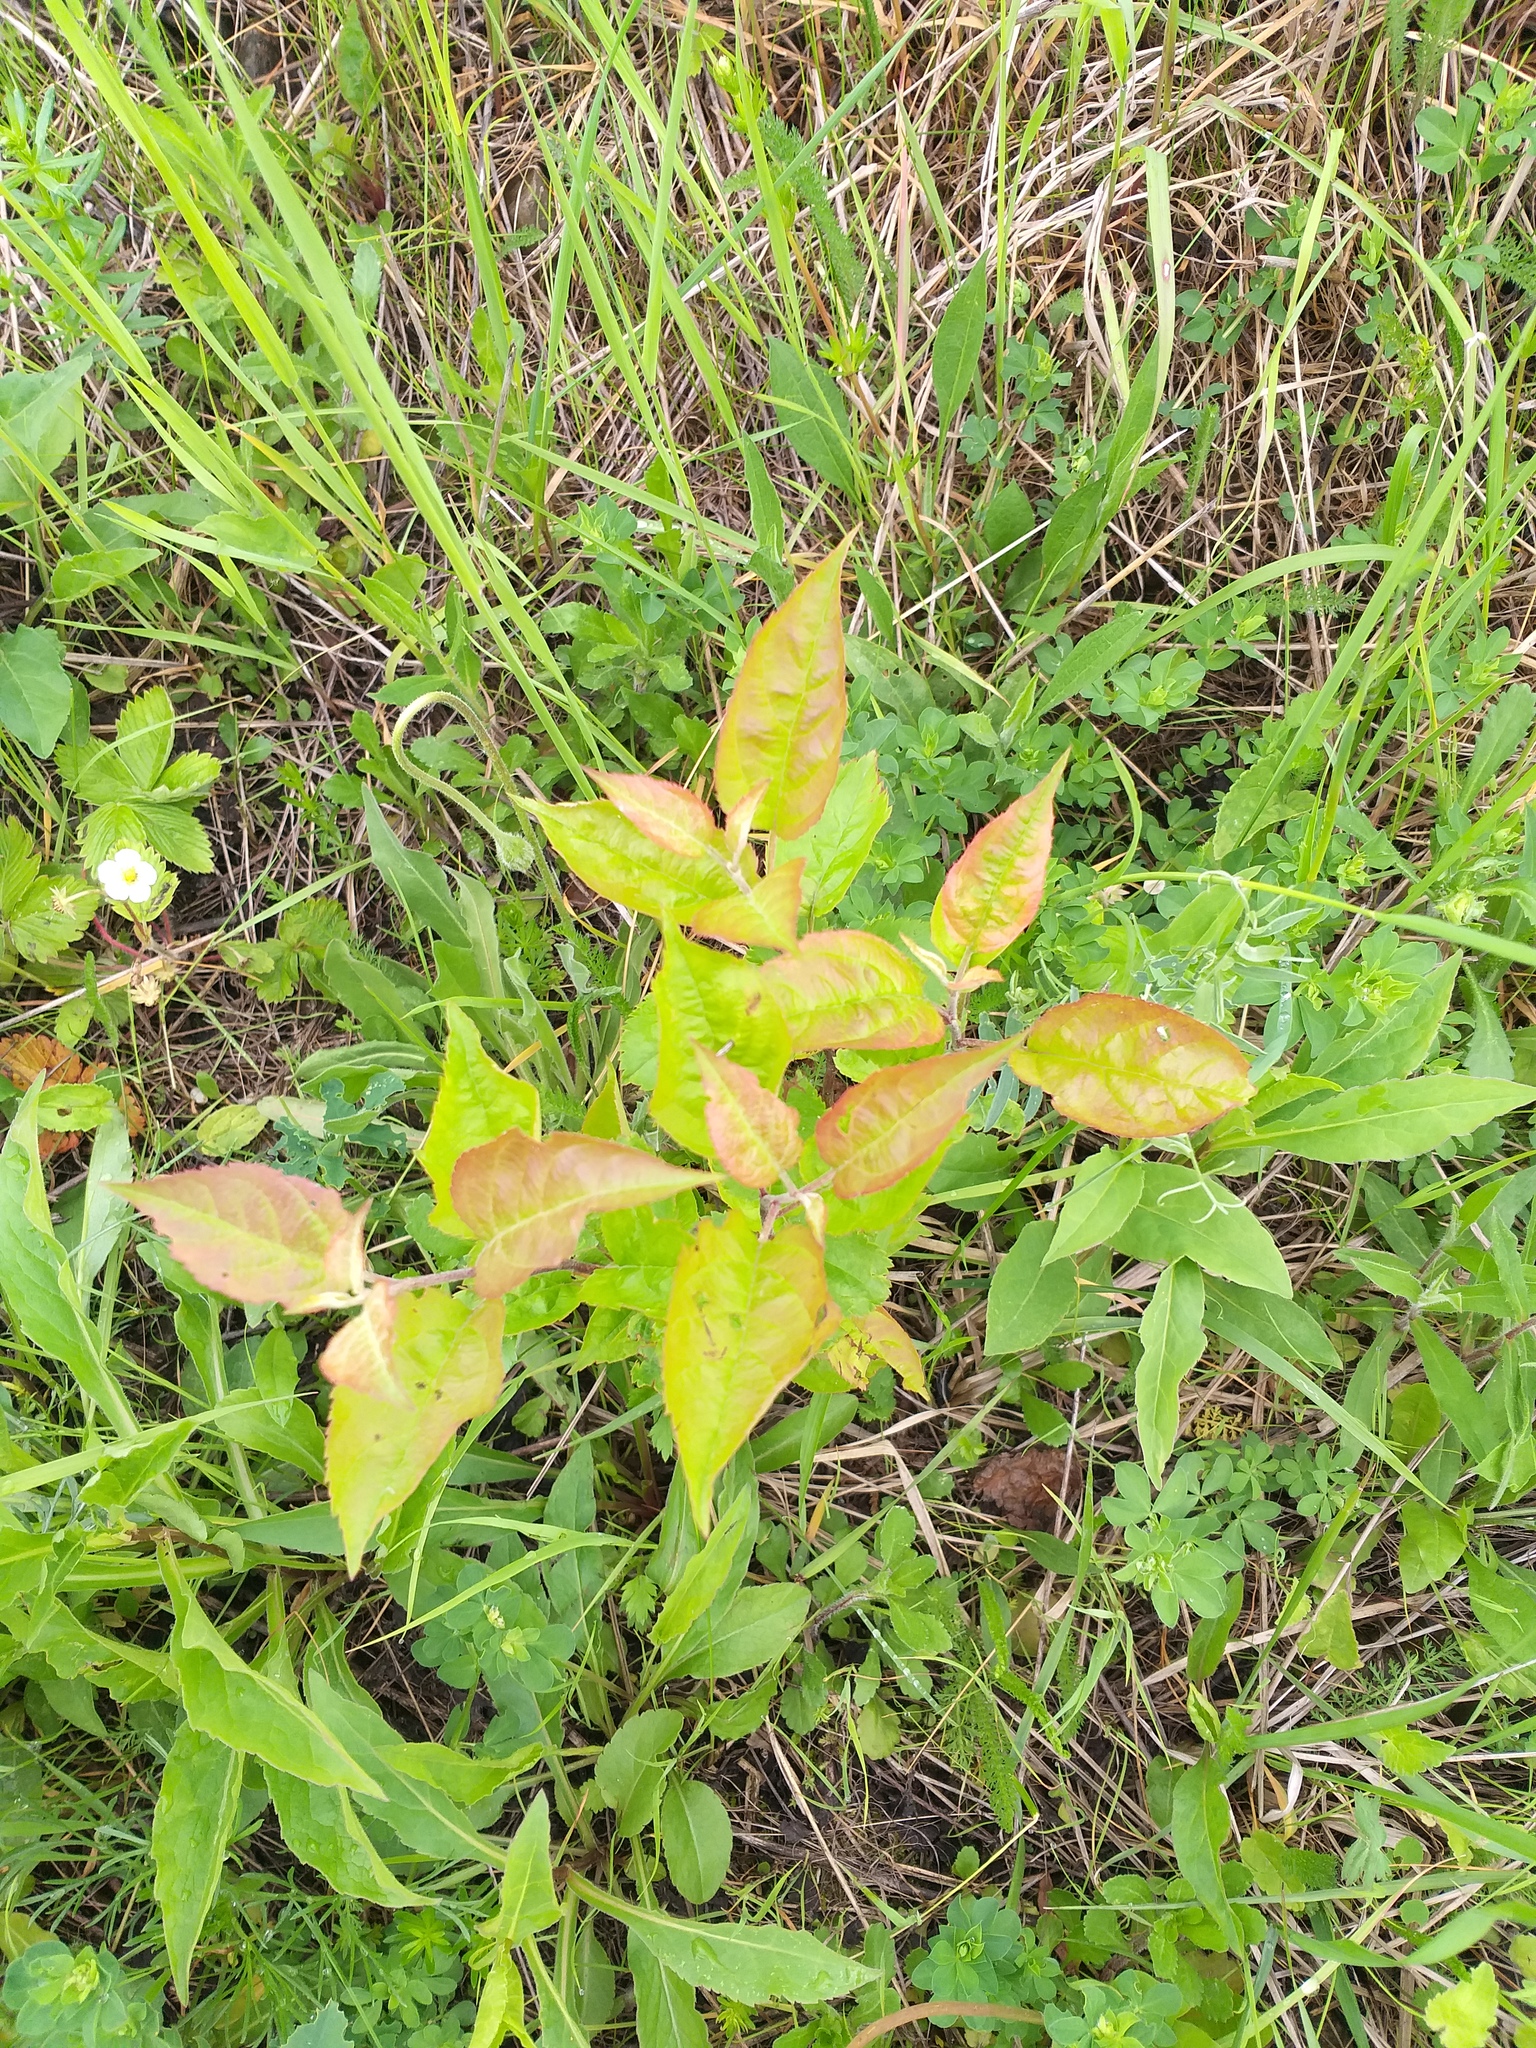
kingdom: Plantae
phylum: Tracheophyta
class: Magnoliopsida
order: Rosales
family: Rosaceae
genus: Malus
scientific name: Malus domestica
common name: Apple
